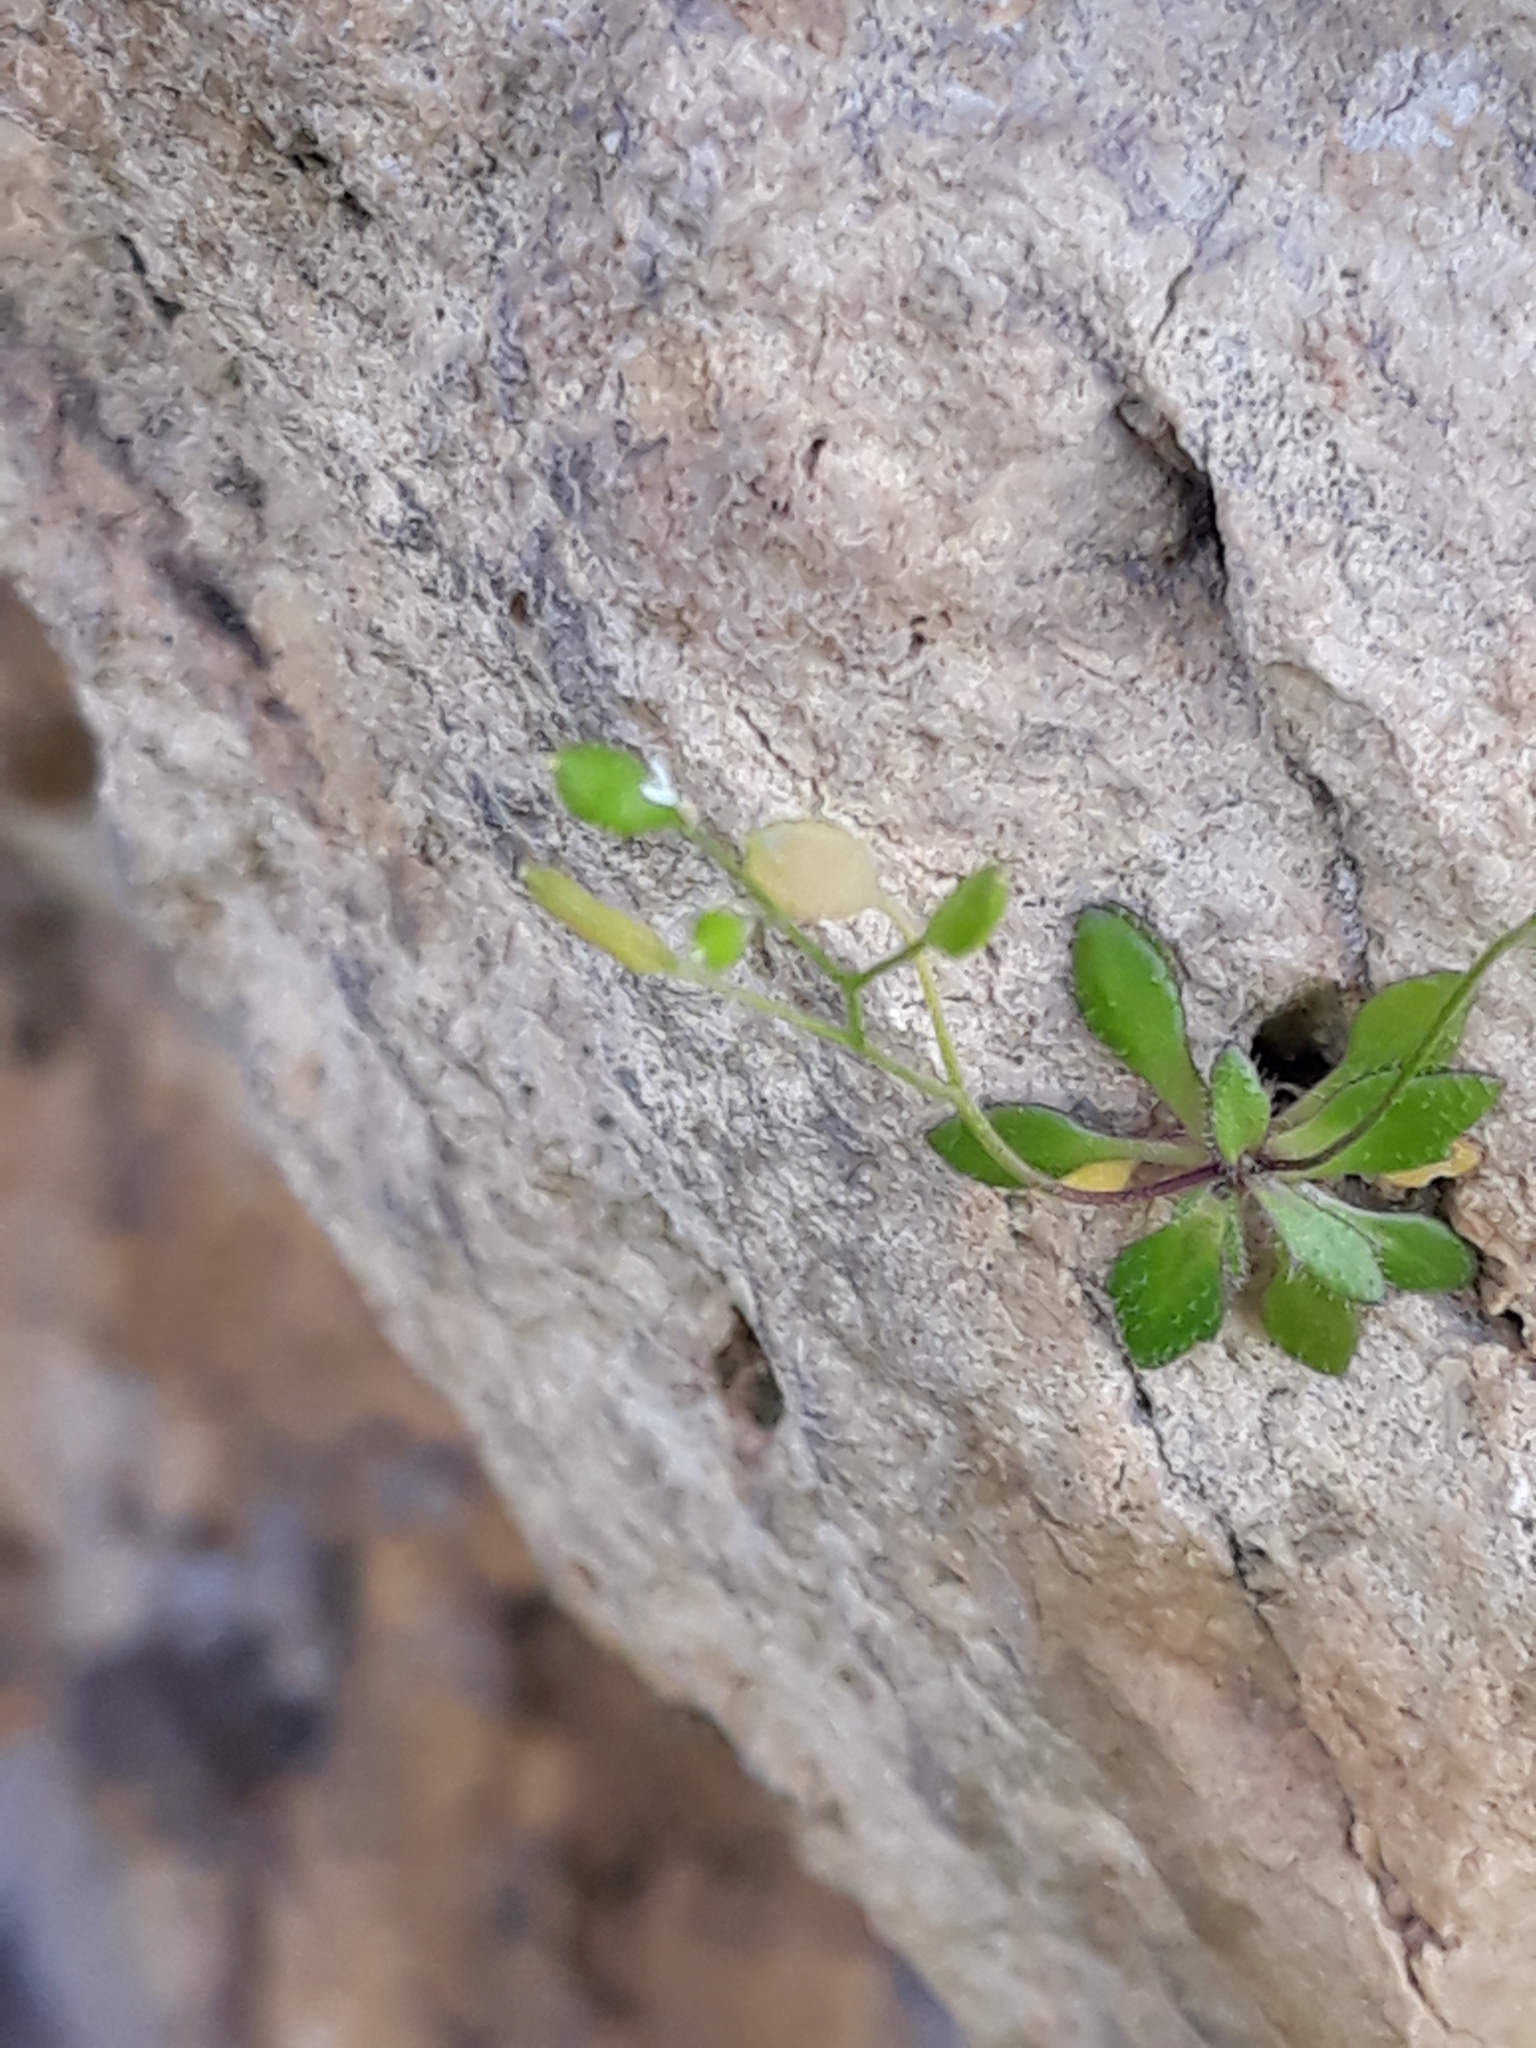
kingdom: Plantae
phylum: Tracheophyta
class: Magnoliopsida
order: Brassicales
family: Brassicaceae
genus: Draba
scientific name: Draba verna
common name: Spring draba
